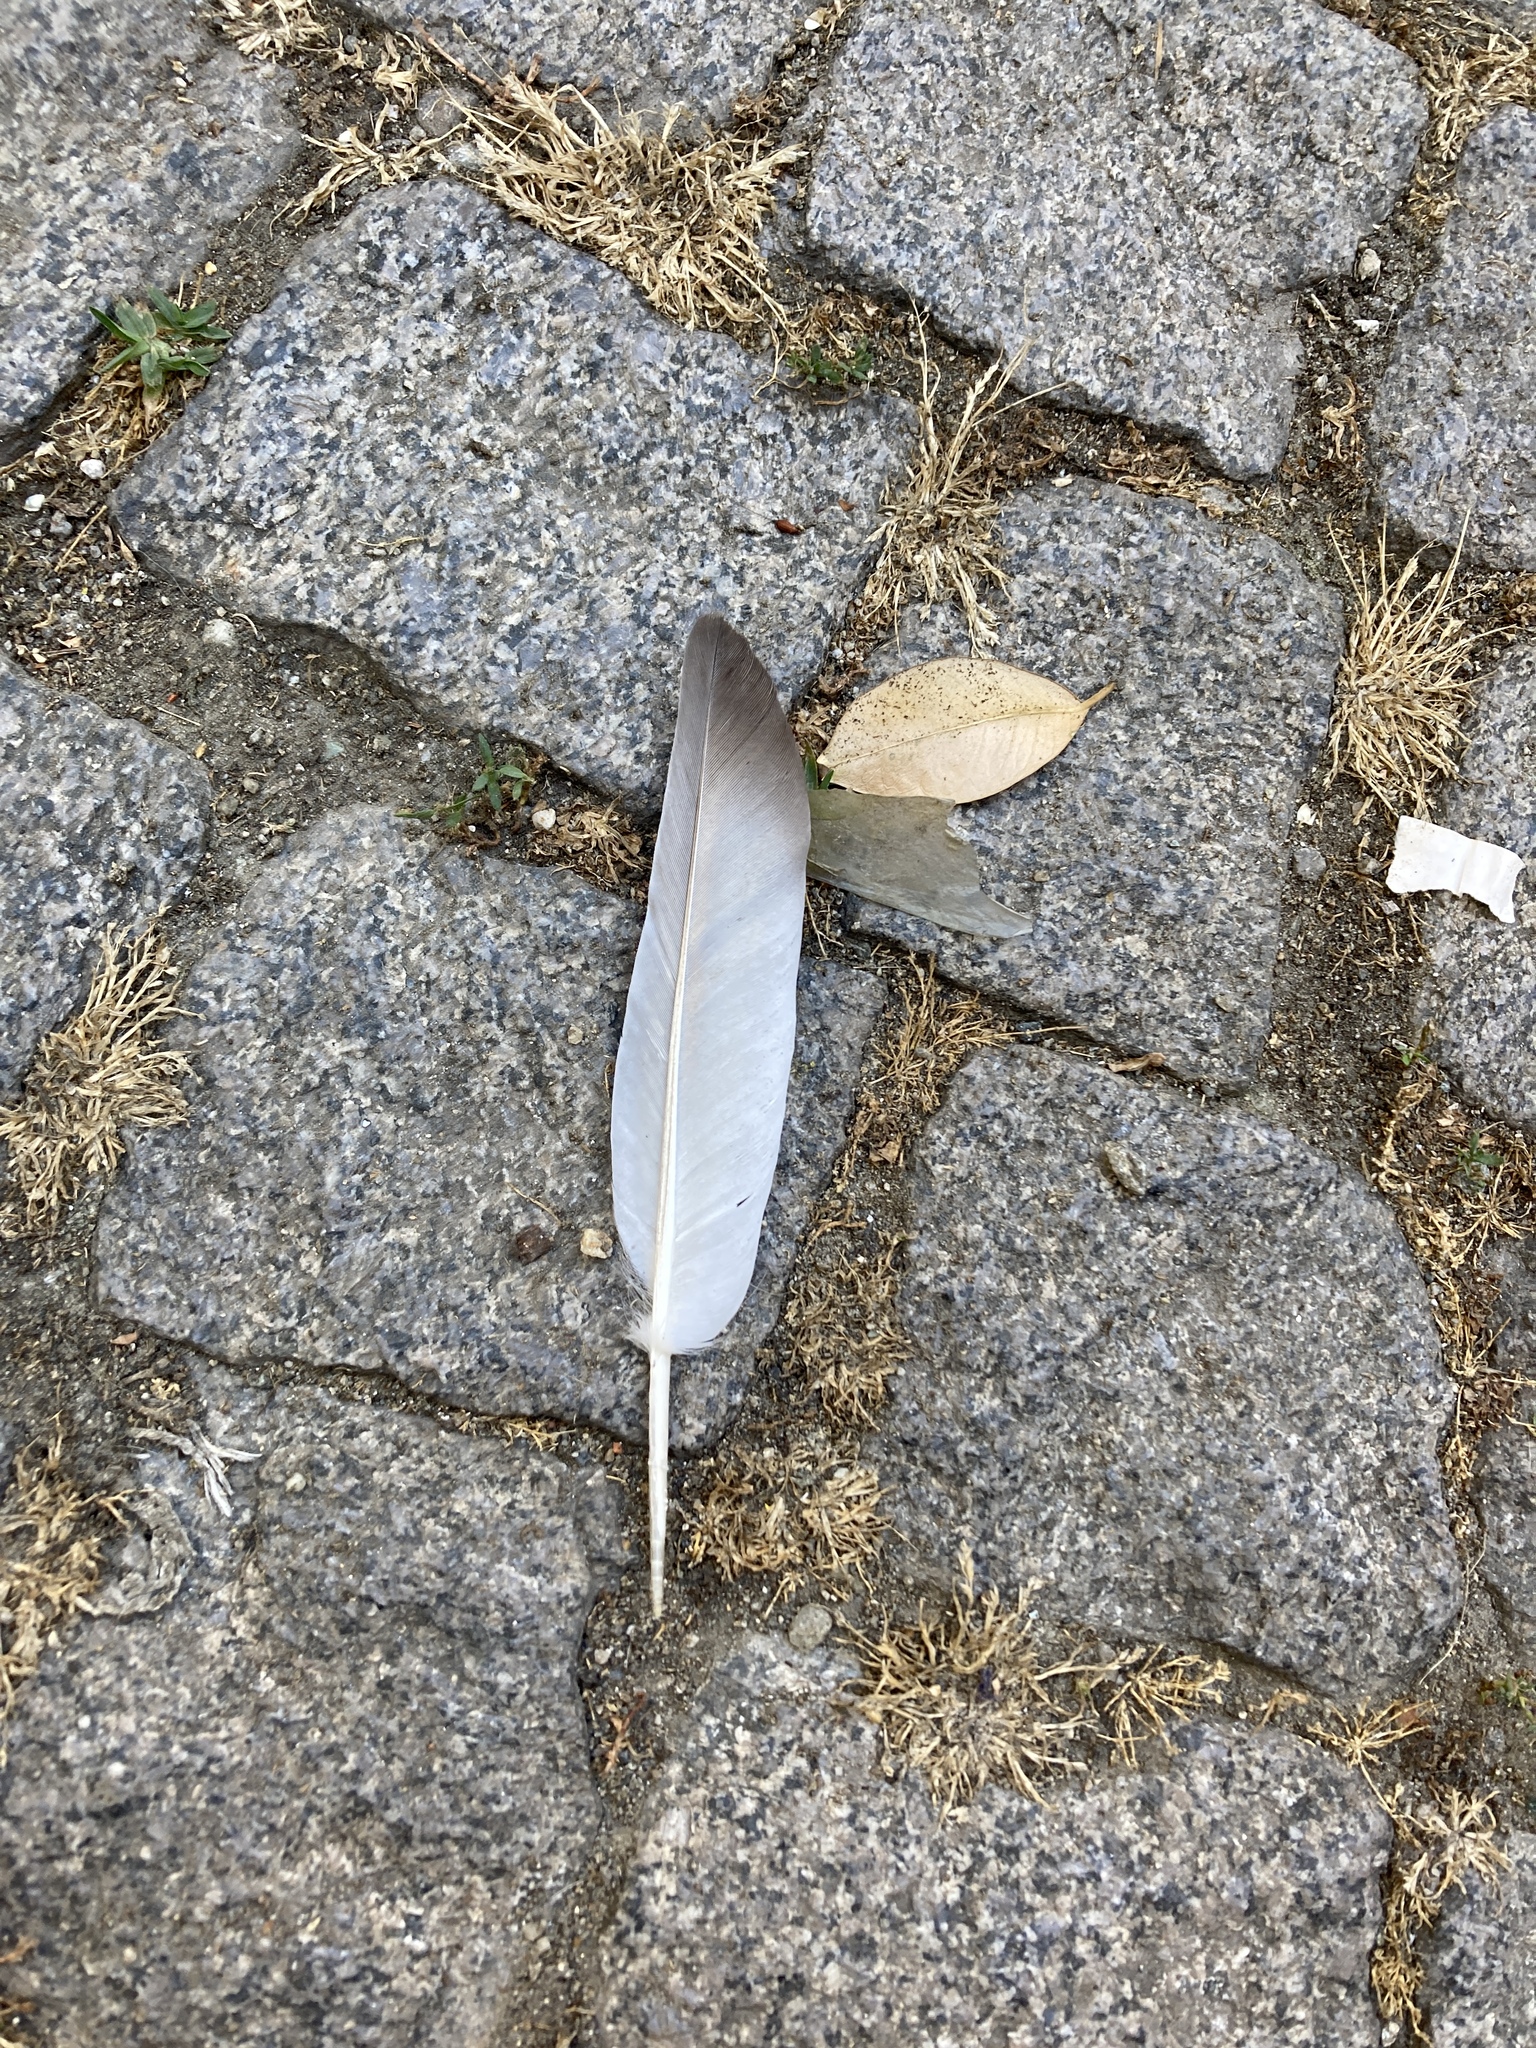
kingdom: Animalia
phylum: Chordata
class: Aves
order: Columbiformes
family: Columbidae
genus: Columba
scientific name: Columba livia
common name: Rock pigeon
